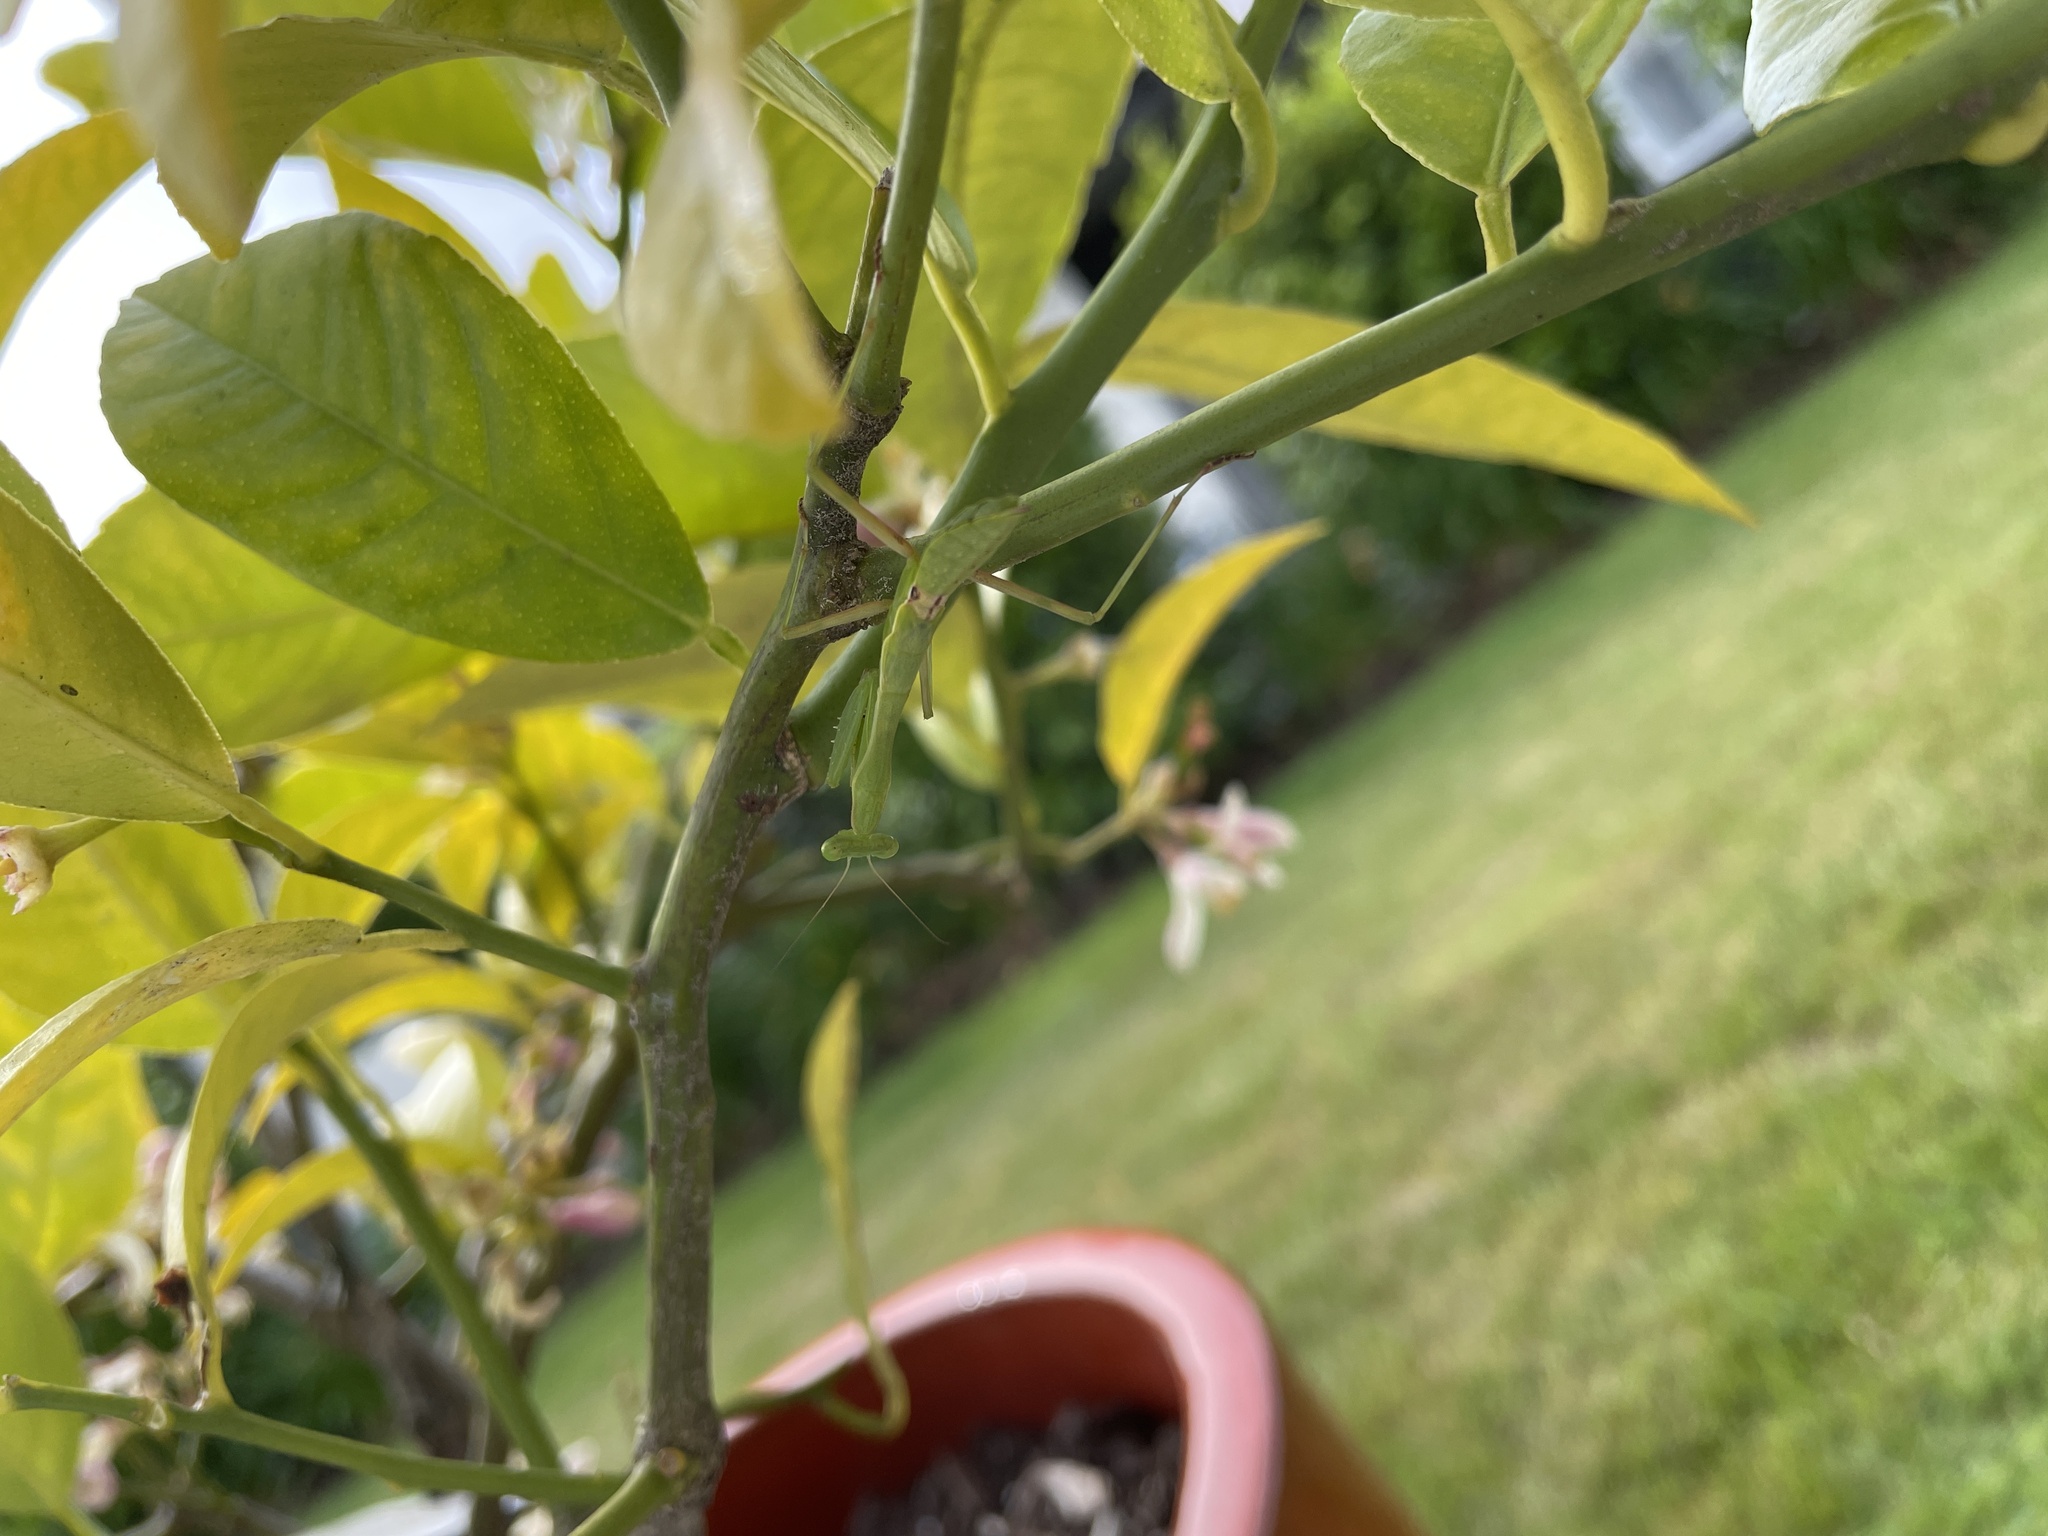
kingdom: Animalia
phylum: Arthropoda
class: Insecta
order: Mantodea
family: Miomantidae
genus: Miomantis
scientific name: Miomantis caffra
